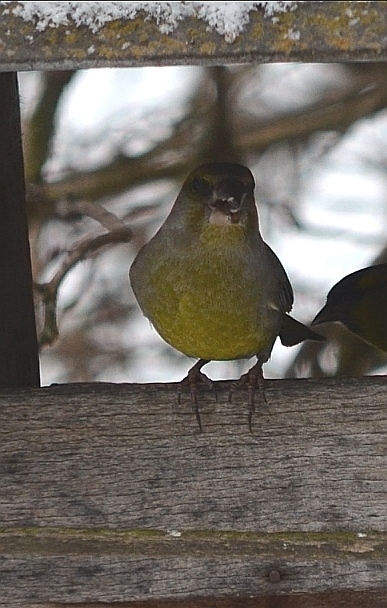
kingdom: Plantae
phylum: Tracheophyta
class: Liliopsida
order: Poales
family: Poaceae
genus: Chloris
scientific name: Chloris chloris
